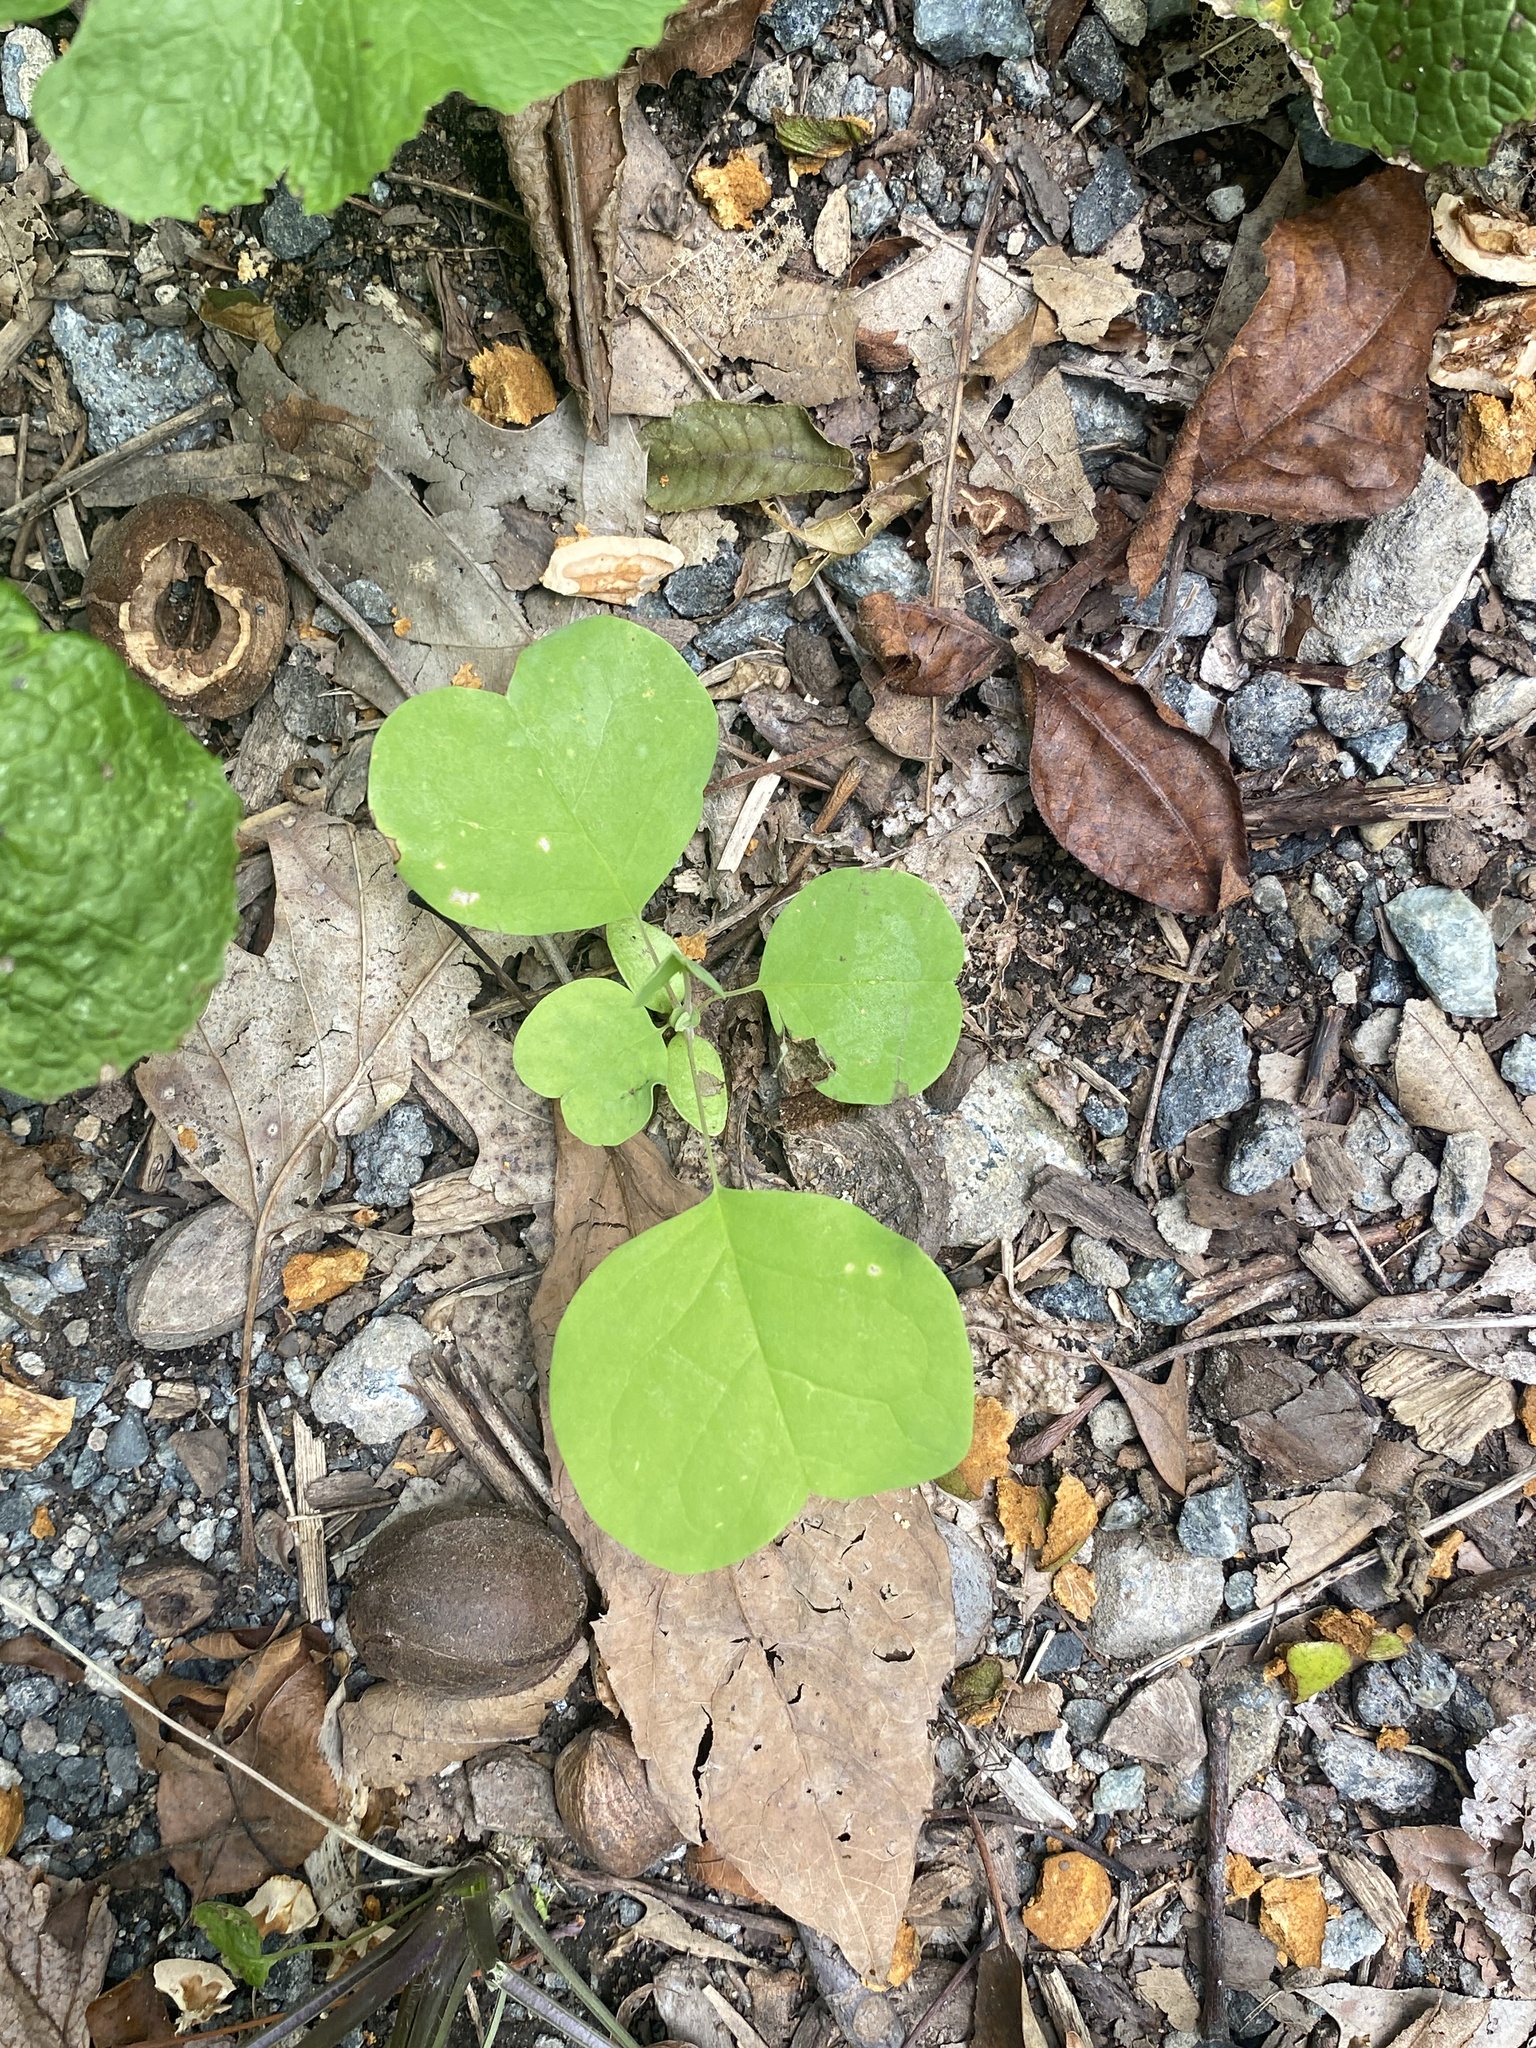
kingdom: Plantae
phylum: Tracheophyta
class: Magnoliopsida
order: Magnoliales
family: Magnoliaceae
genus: Liriodendron
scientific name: Liriodendron tulipifera
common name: Tulip tree
